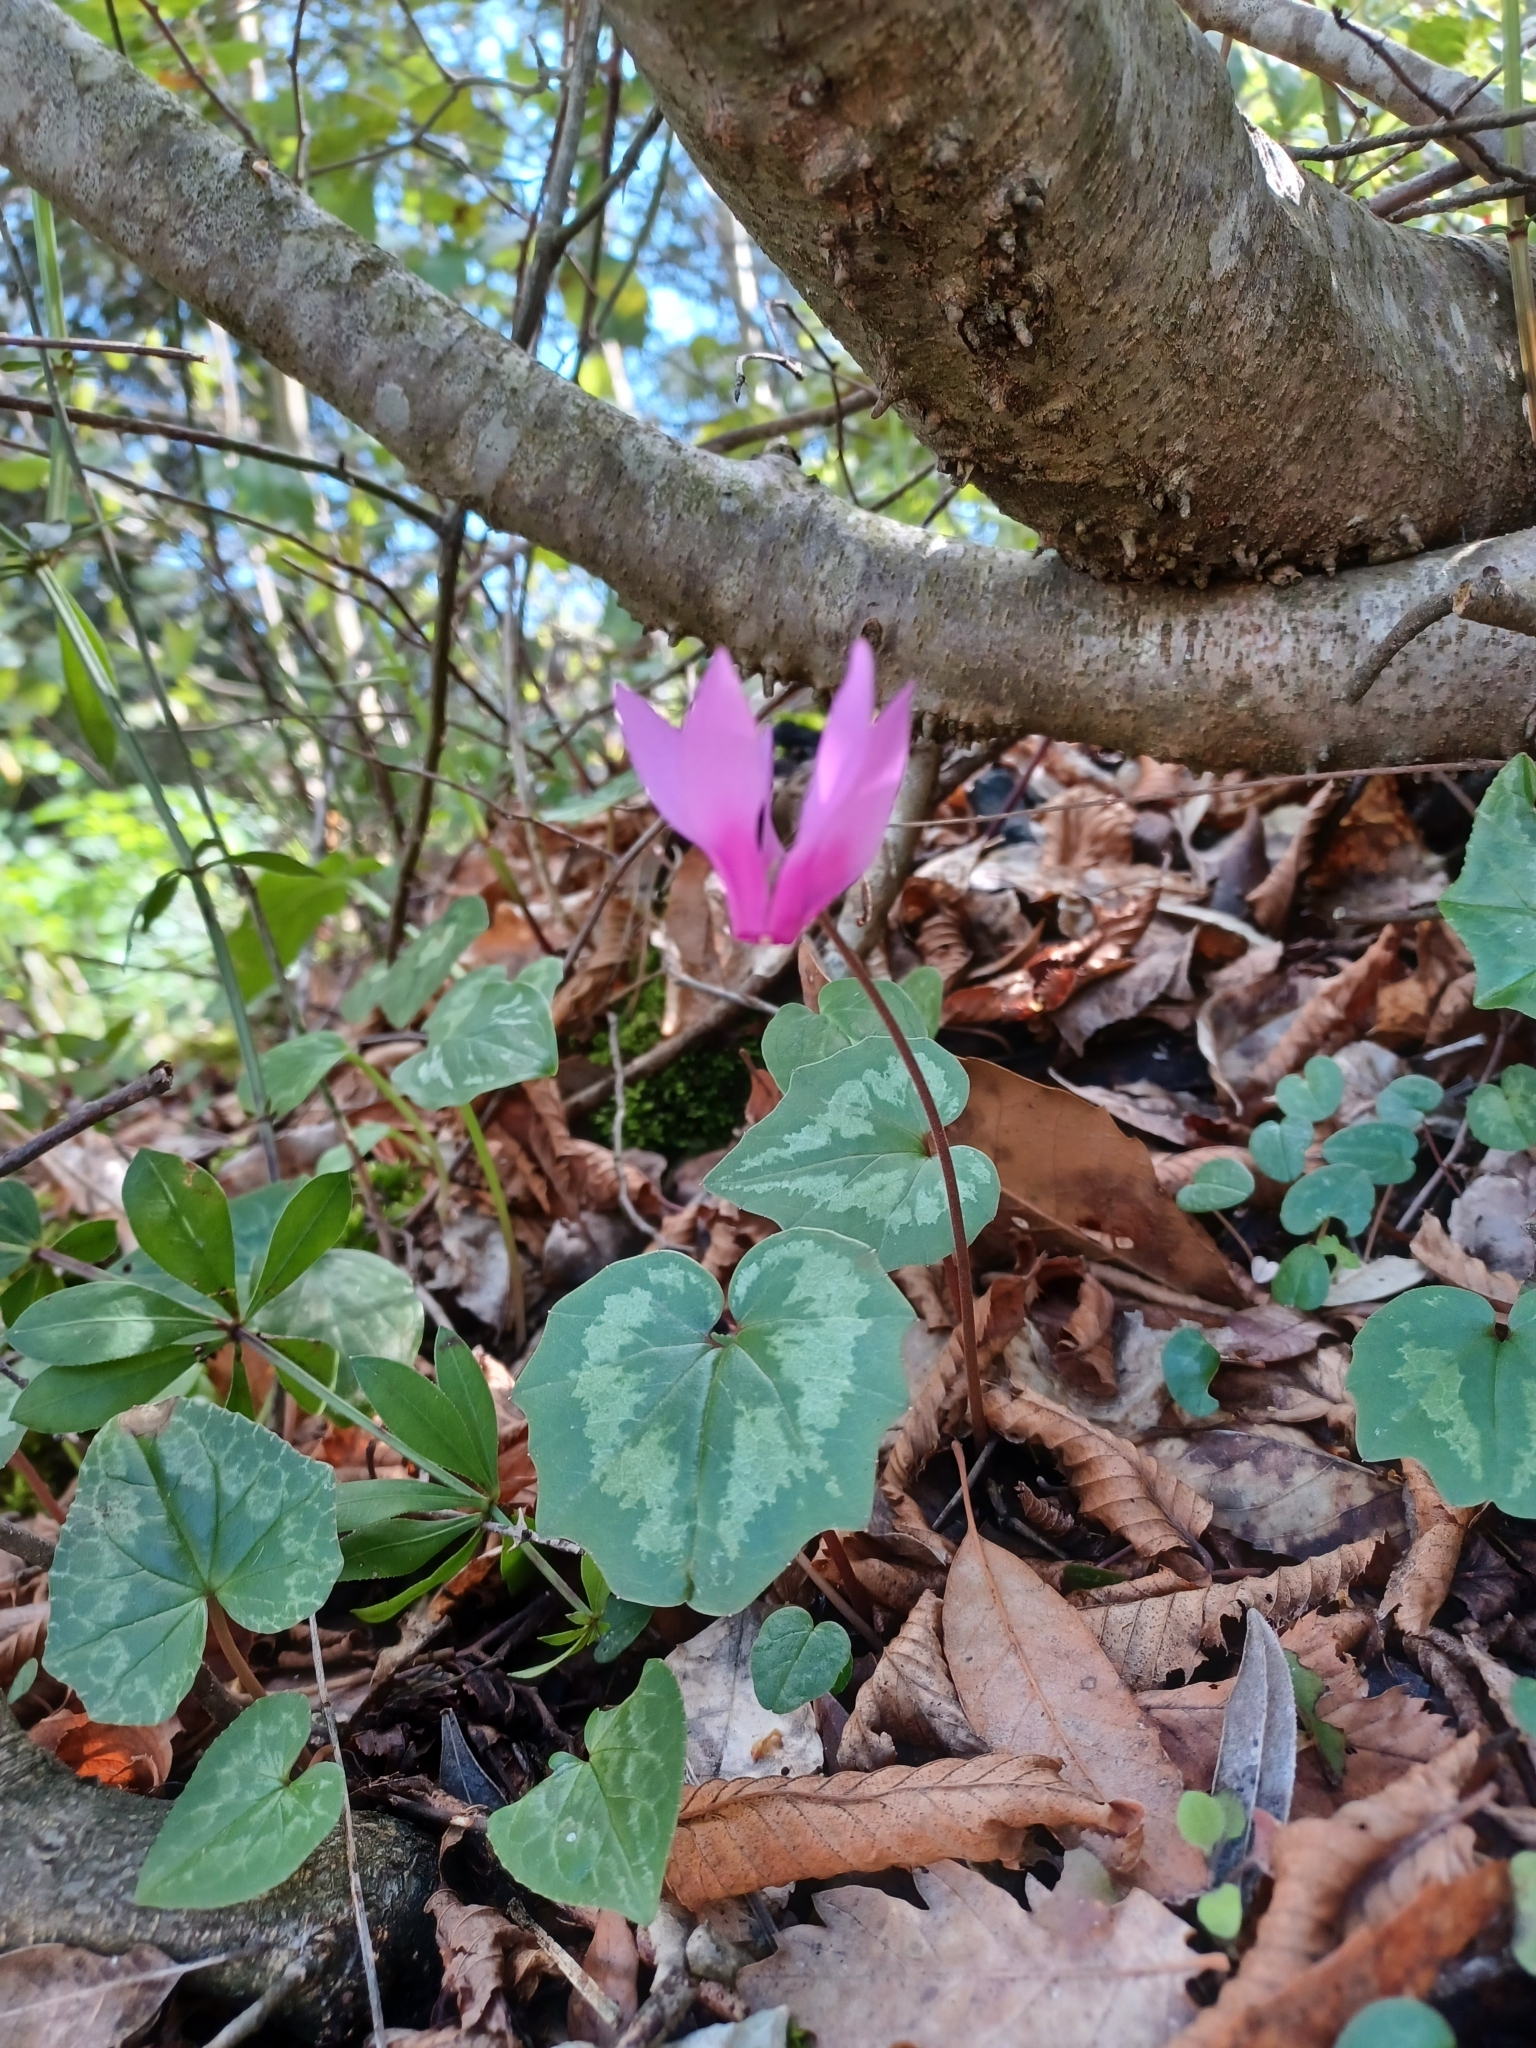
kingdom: Plantae
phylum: Tracheophyta
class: Magnoliopsida
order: Ericales
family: Primulaceae
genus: Cyclamen
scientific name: Cyclamen repandum
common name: Spring sowbread
